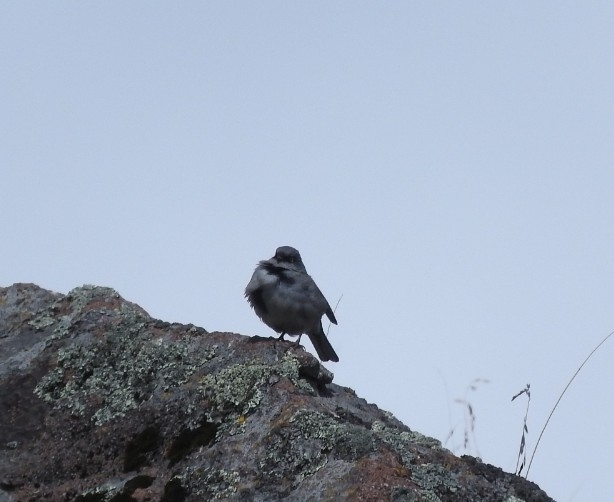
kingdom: Animalia
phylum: Chordata
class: Aves
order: Passeriformes
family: Passerellidae
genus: Junco
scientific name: Junco phaeonotus
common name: Yellow-eyed junco
